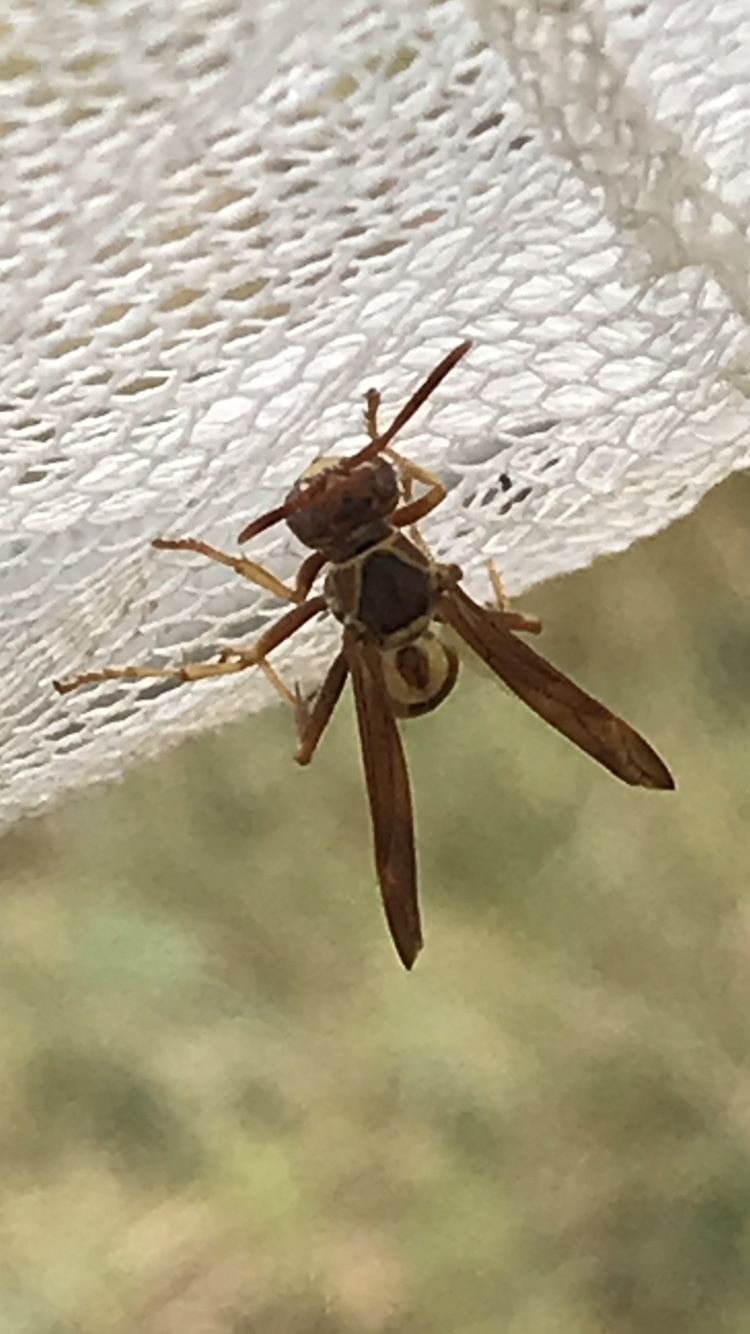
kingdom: Animalia
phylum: Arthropoda
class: Insecta
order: Hymenoptera
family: Eumenidae
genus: Polistes
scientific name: Polistes dorsalis
